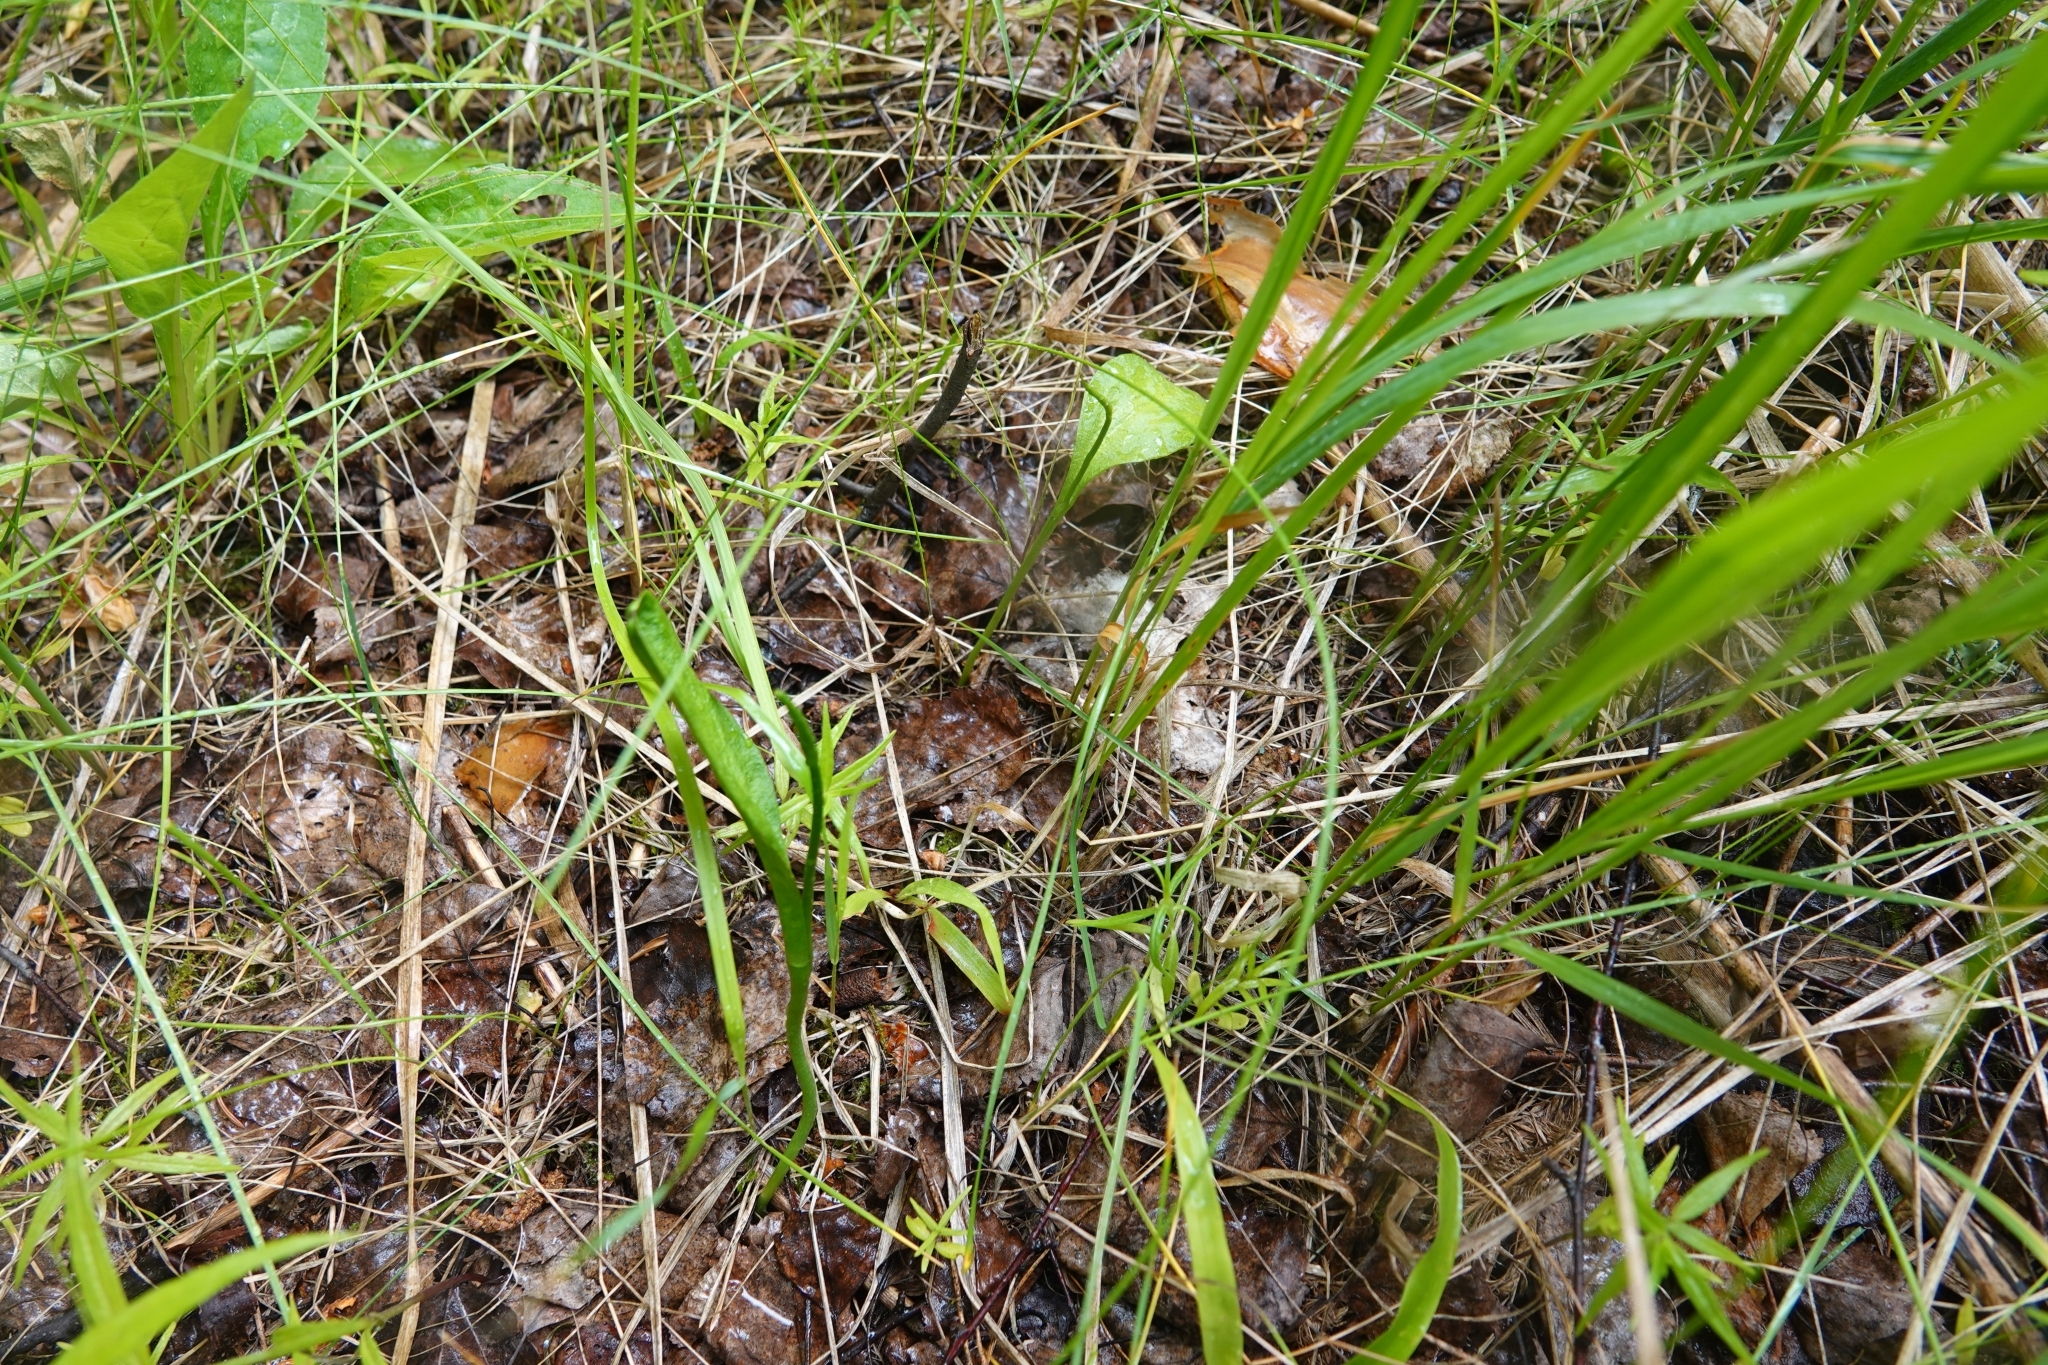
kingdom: Plantae
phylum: Tracheophyta
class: Polypodiopsida
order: Ophioglossales
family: Ophioglossaceae
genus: Ophioglossum
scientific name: Ophioglossum vulgatum
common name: Adder's-tongue
